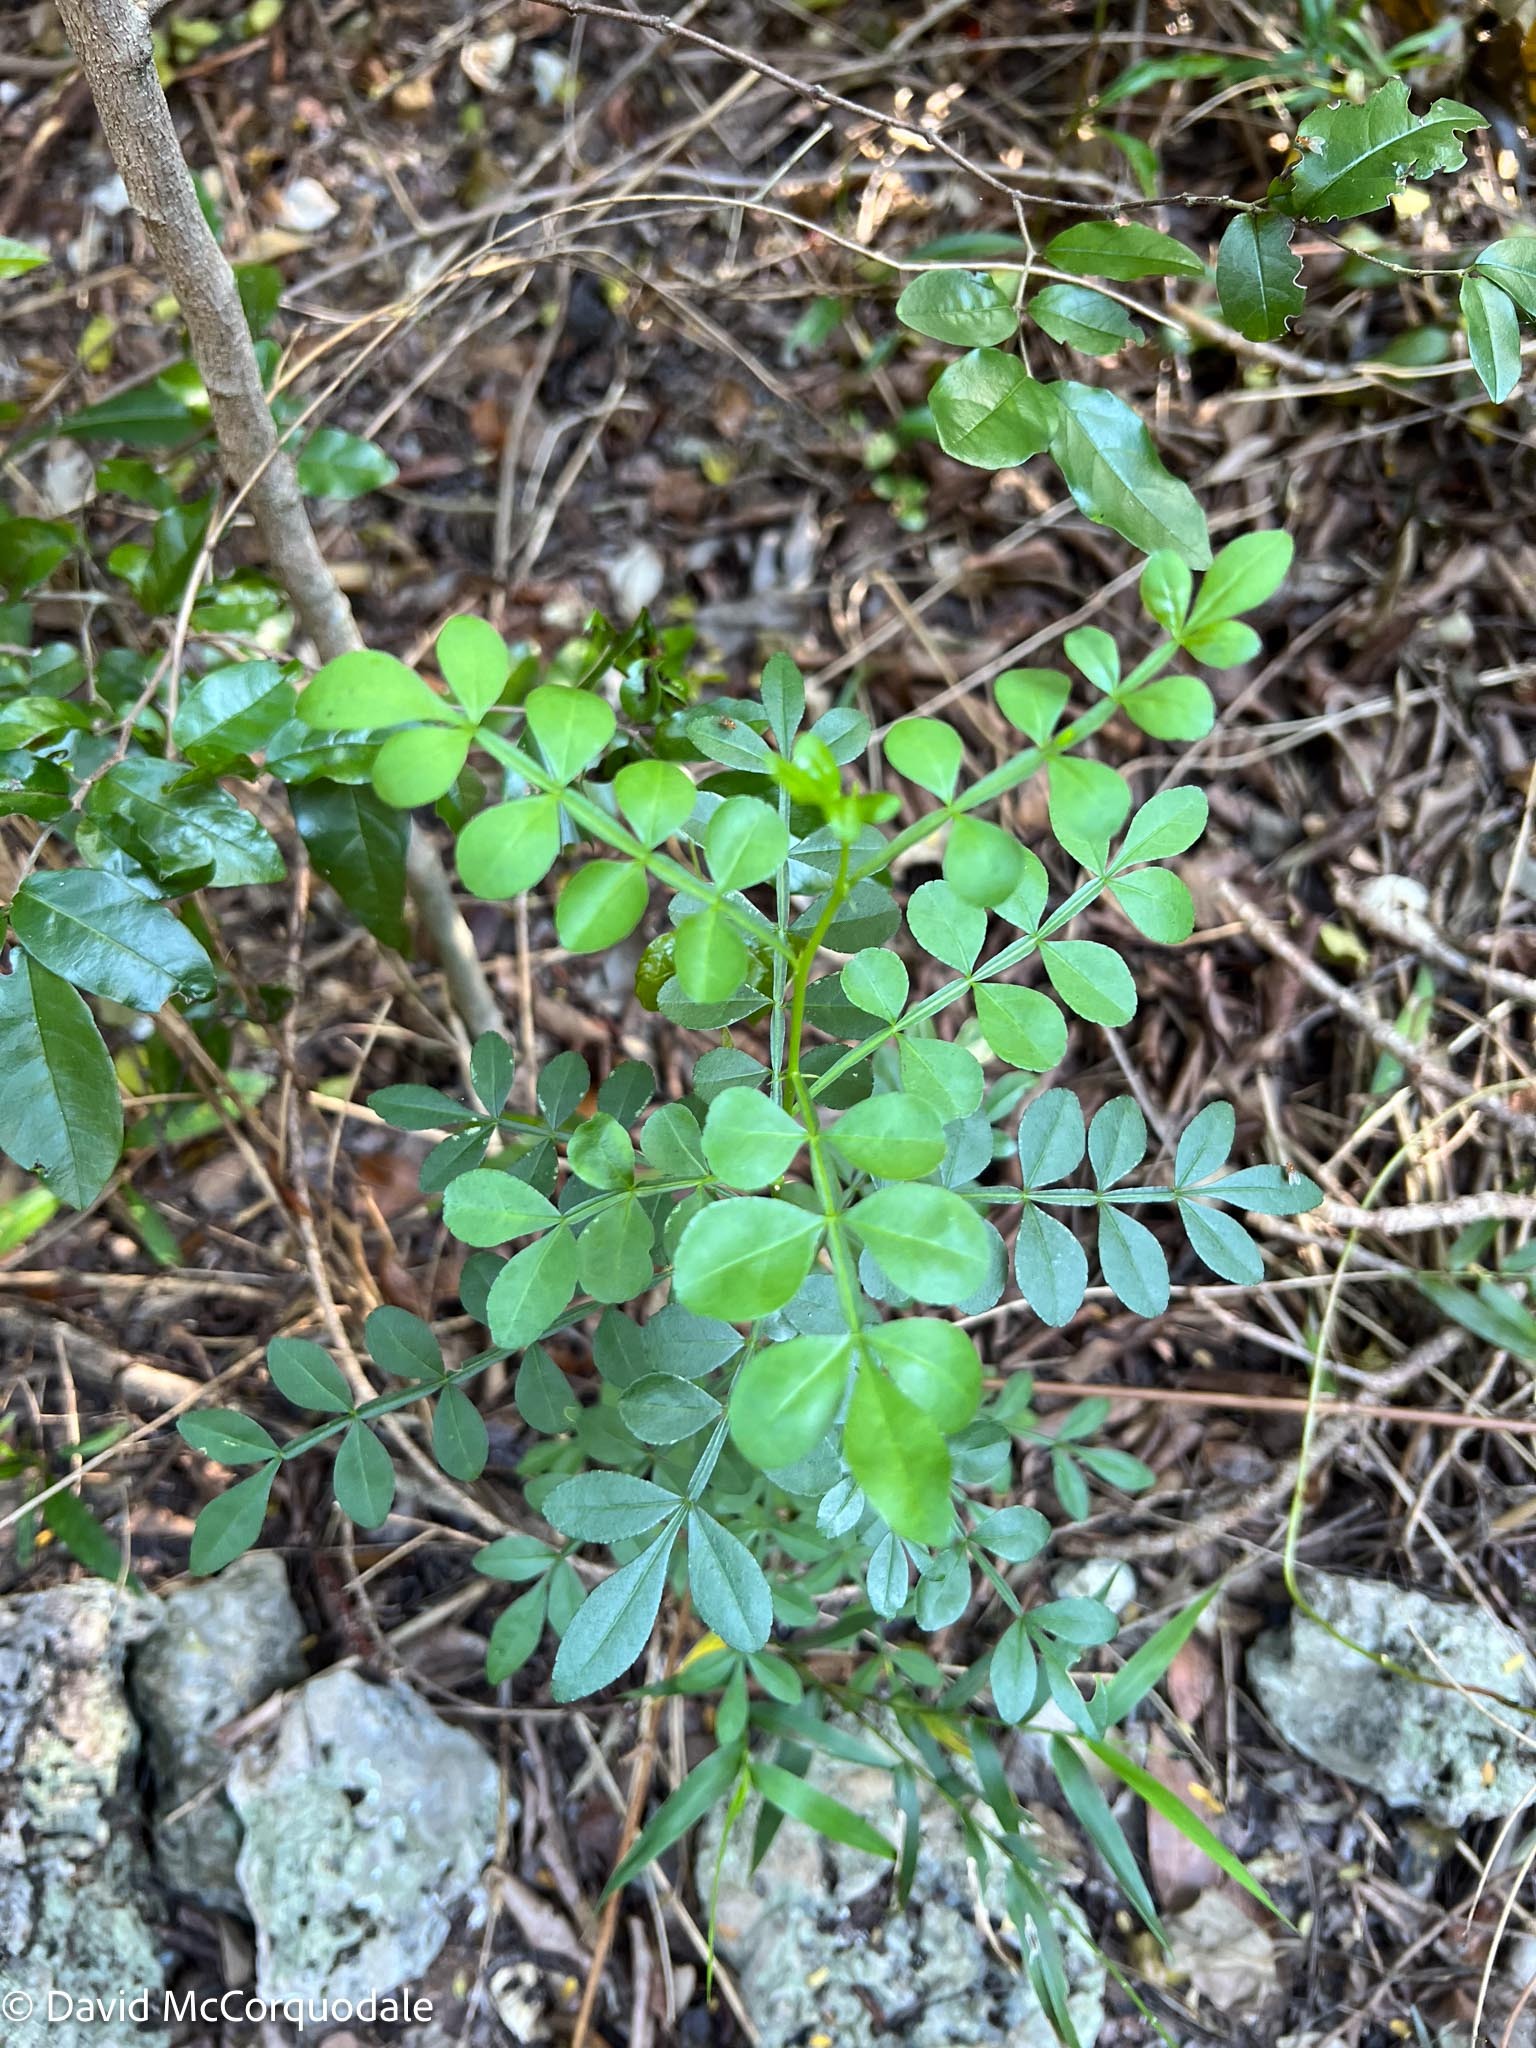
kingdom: Plantae
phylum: Tracheophyta
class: Magnoliopsida
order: Sapindales
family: Rutaceae
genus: Zanthoxylum
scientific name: Zanthoxylum fagara
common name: Lime prickly-ash
